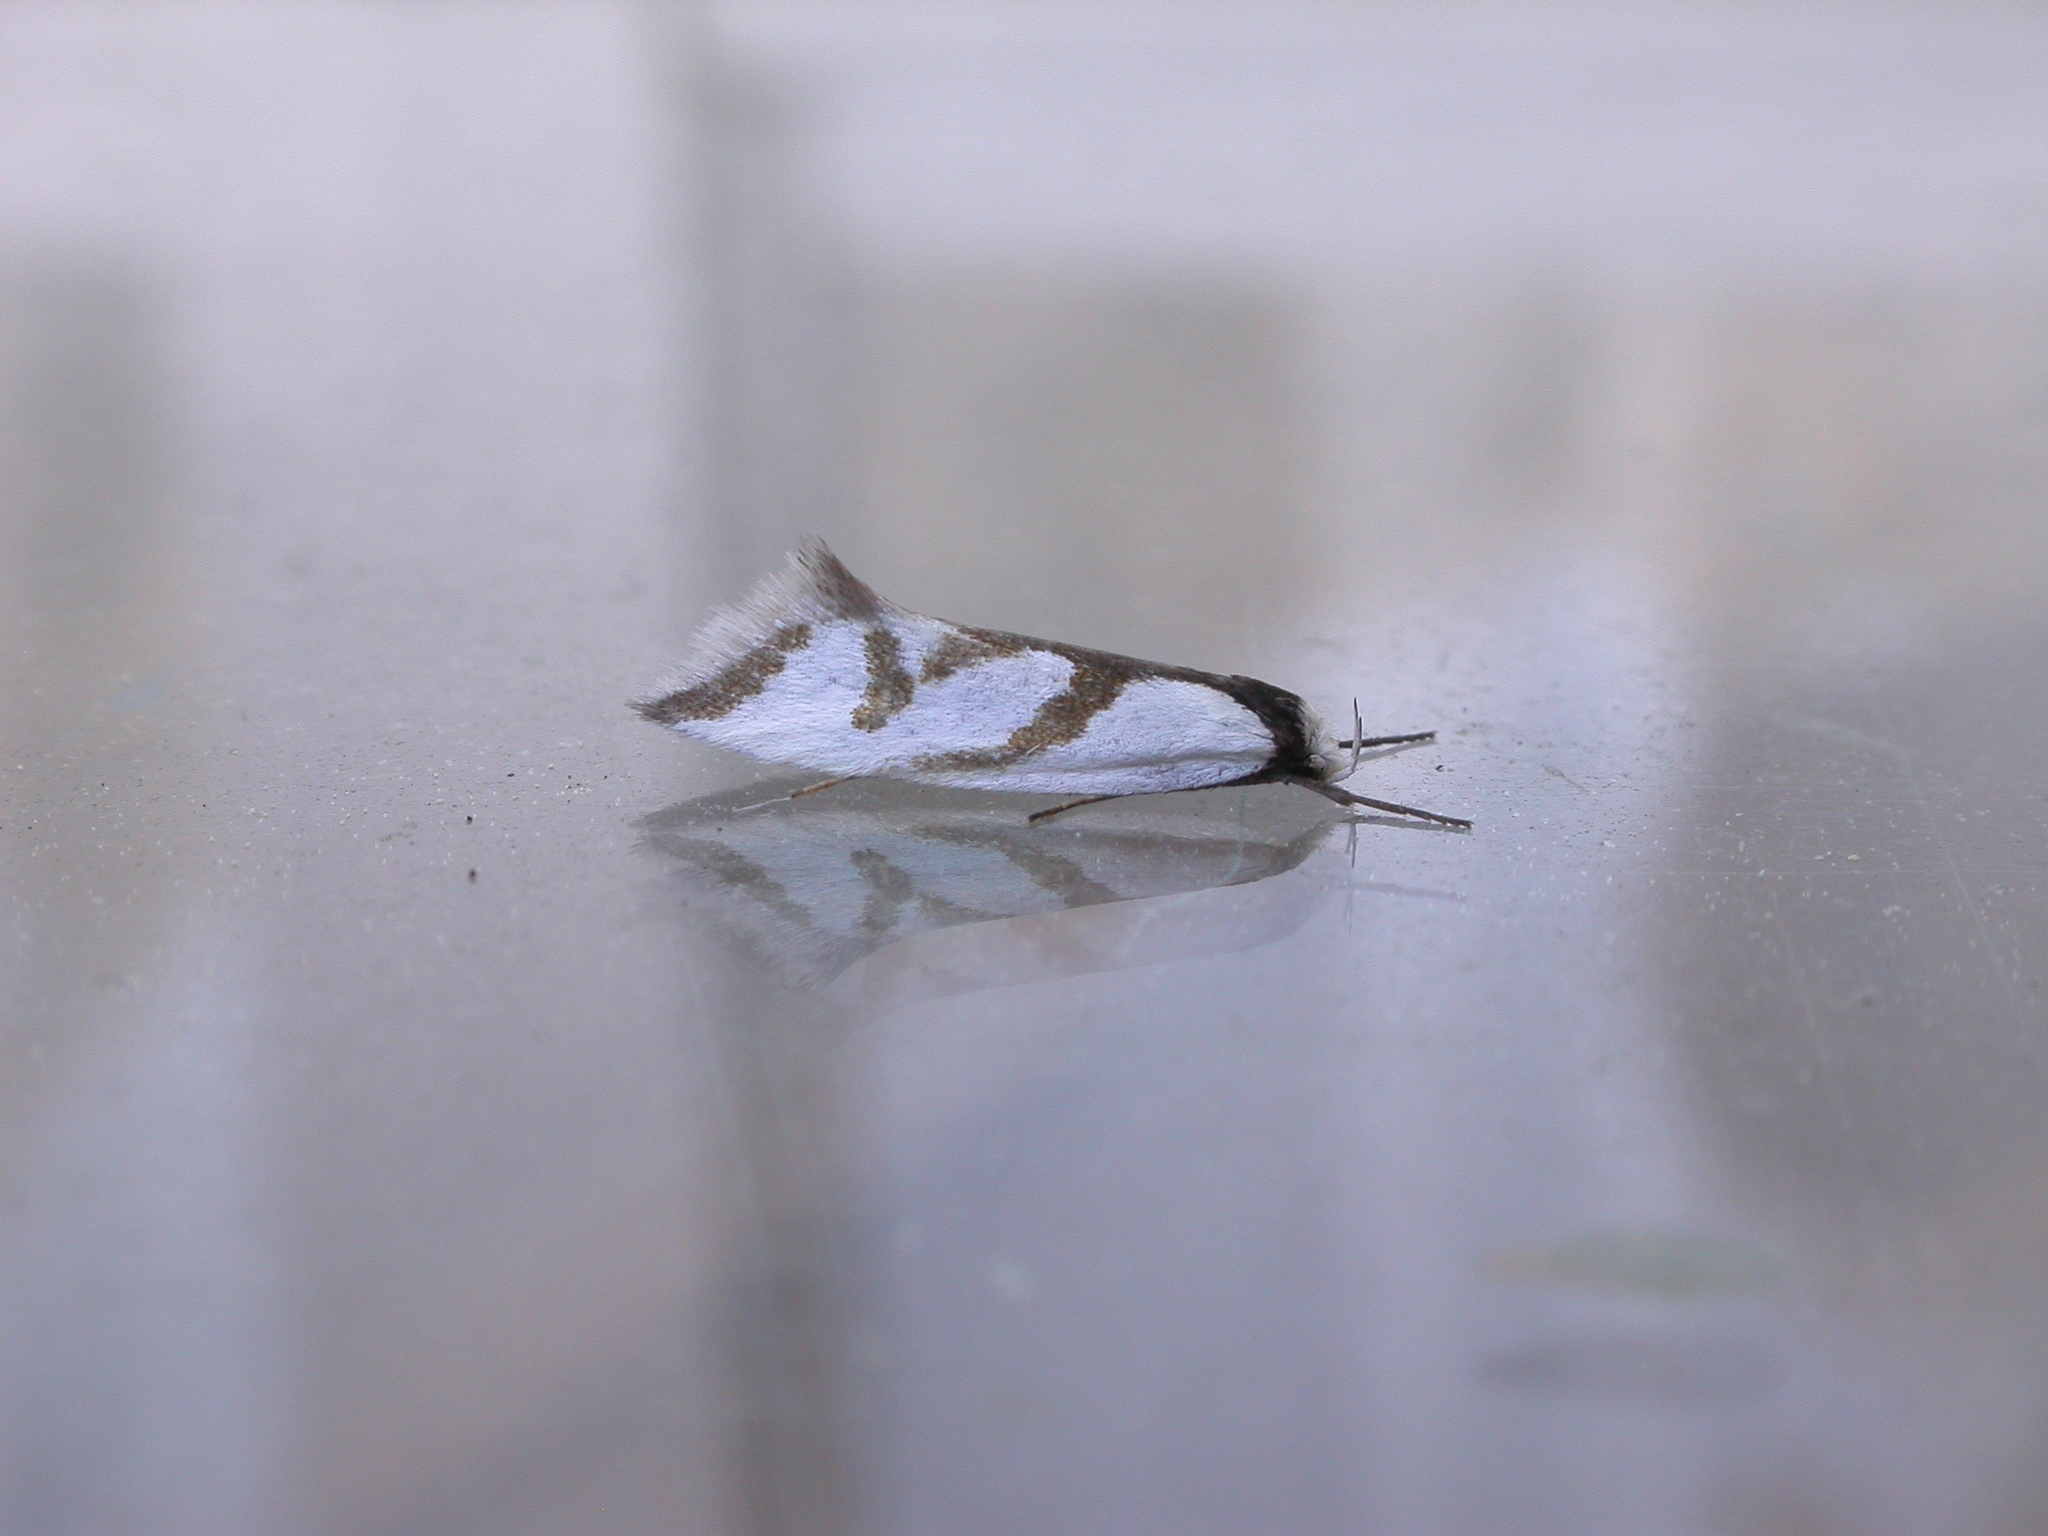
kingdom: Animalia
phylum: Arthropoda
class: Insecta
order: Lepidoptera
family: Oecophoridae
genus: Ocystola
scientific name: Ocystola paulinella
